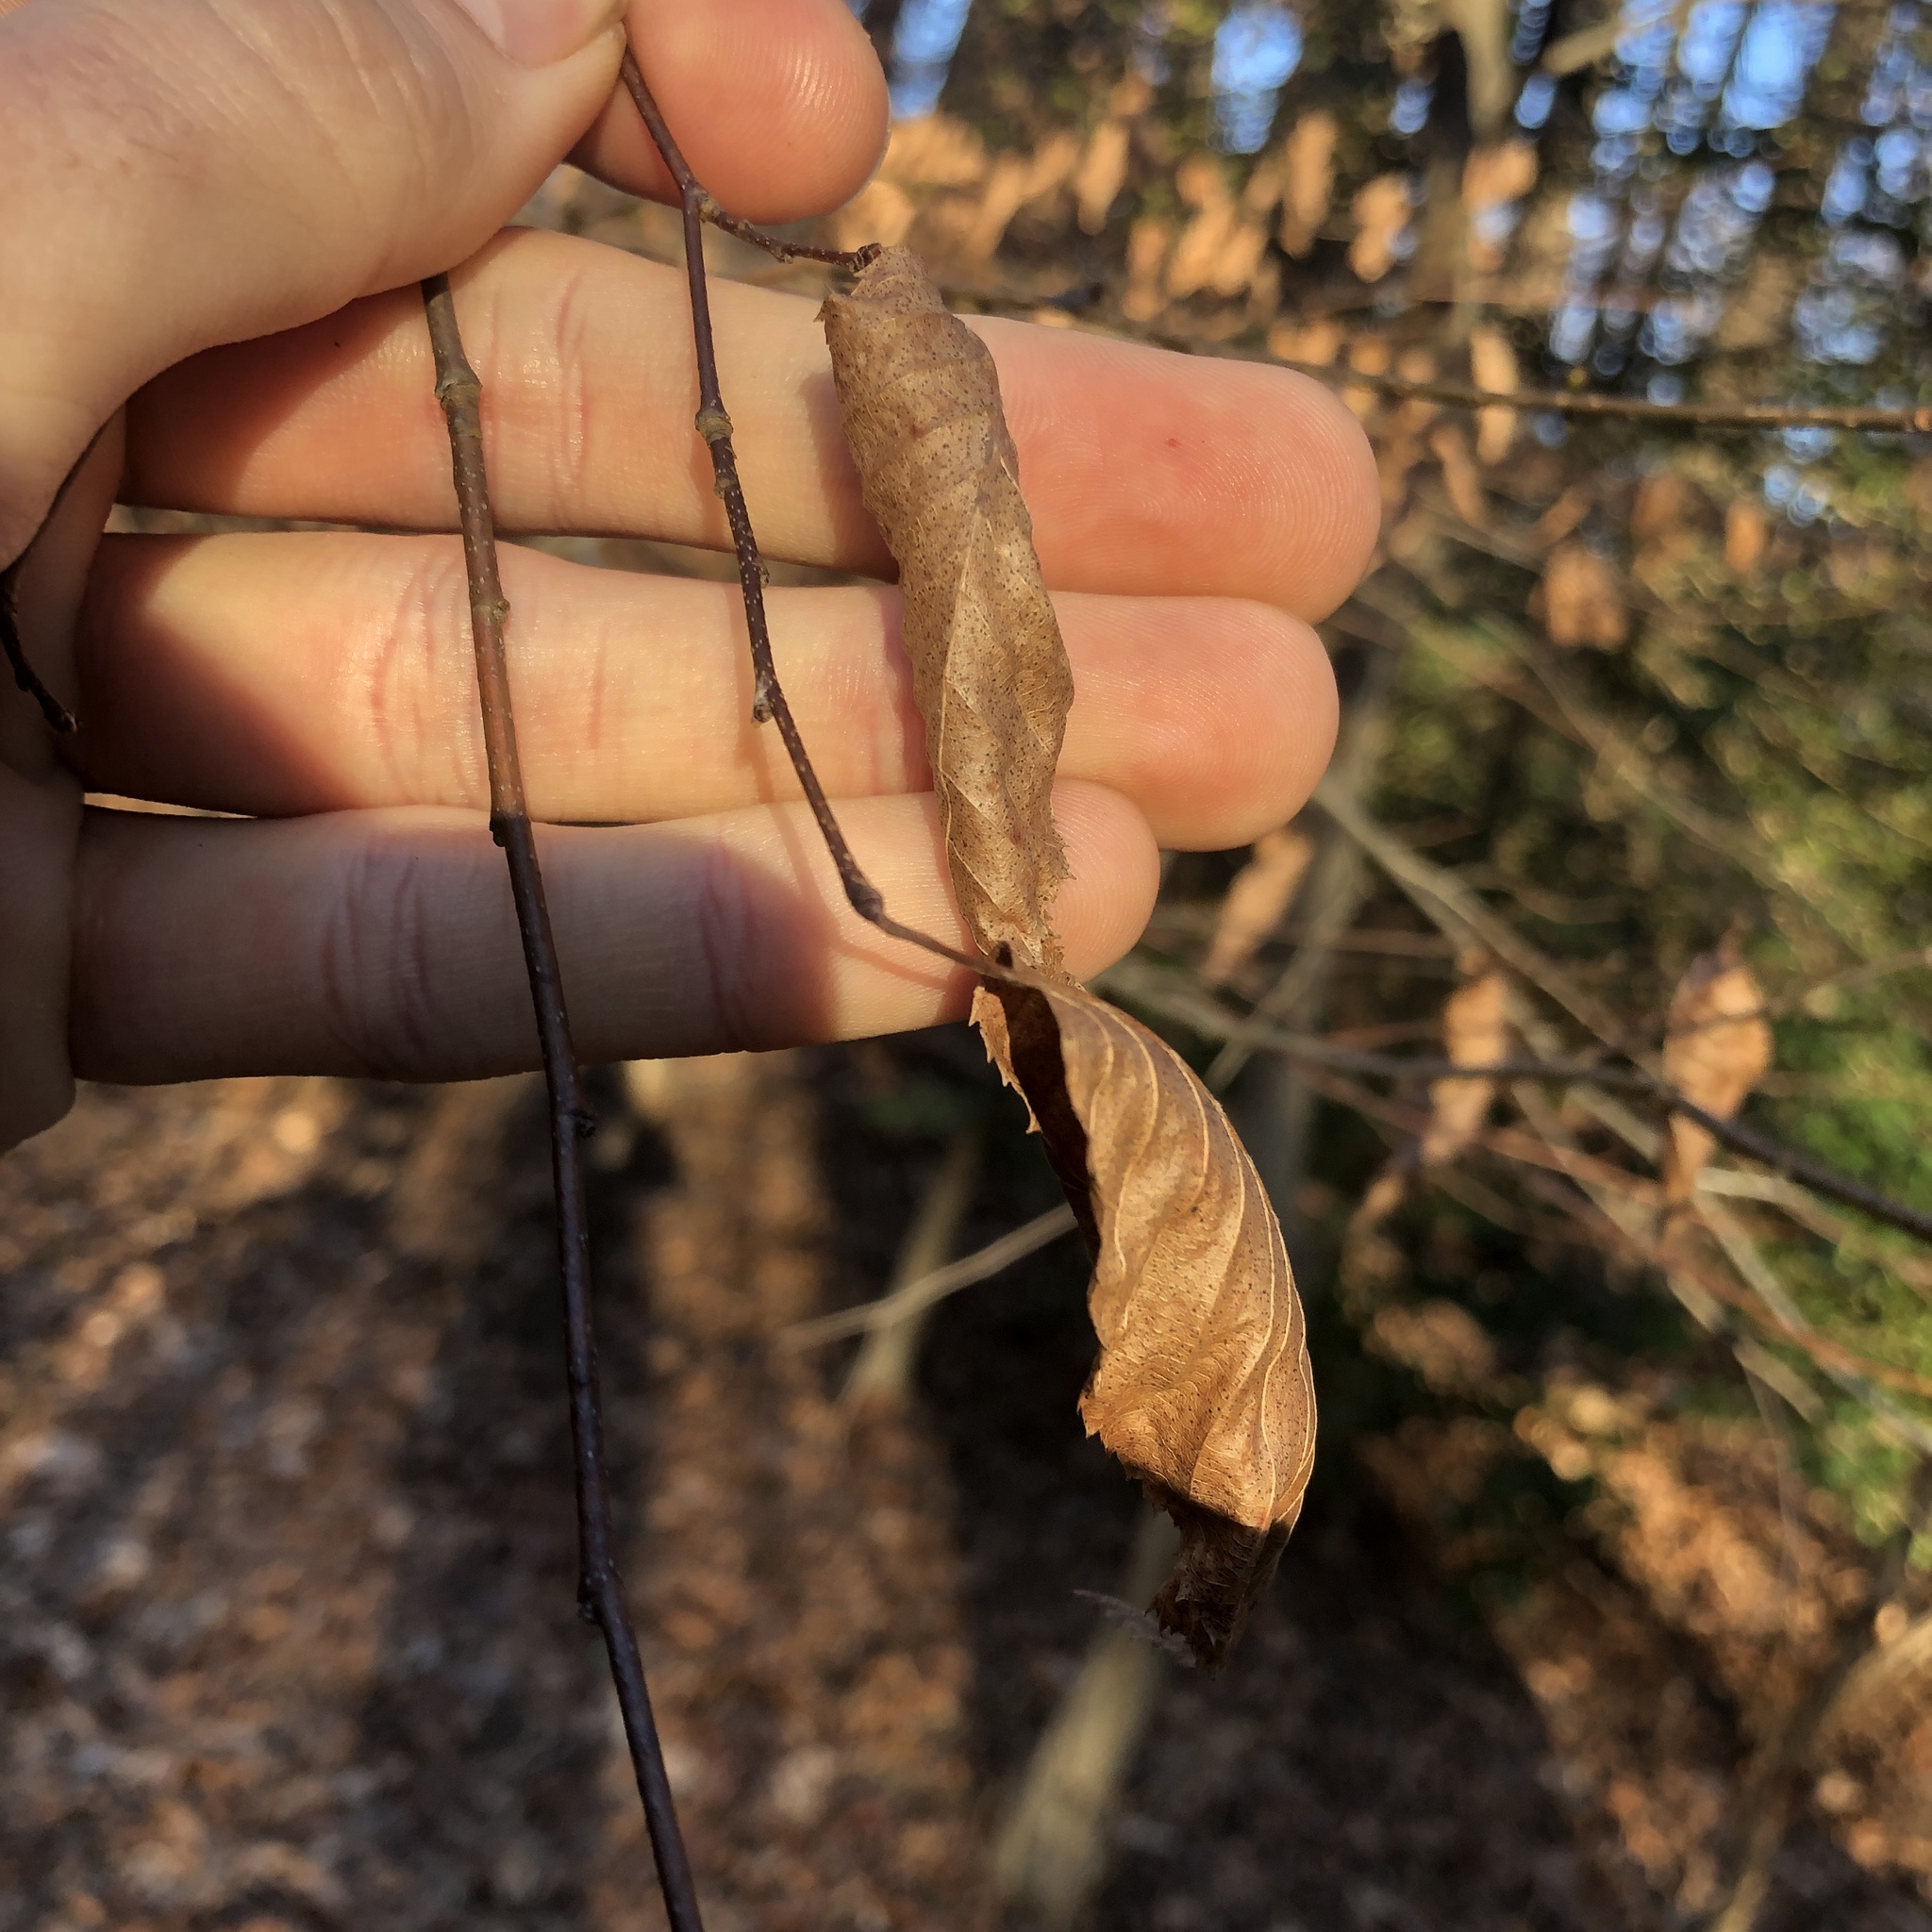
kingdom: Plantae
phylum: Tracheophyta
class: Magnoliopsida
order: Fagales
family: Betulaceae
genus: Carpinus
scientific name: Carpinus caroliniana
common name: American hornbeam
